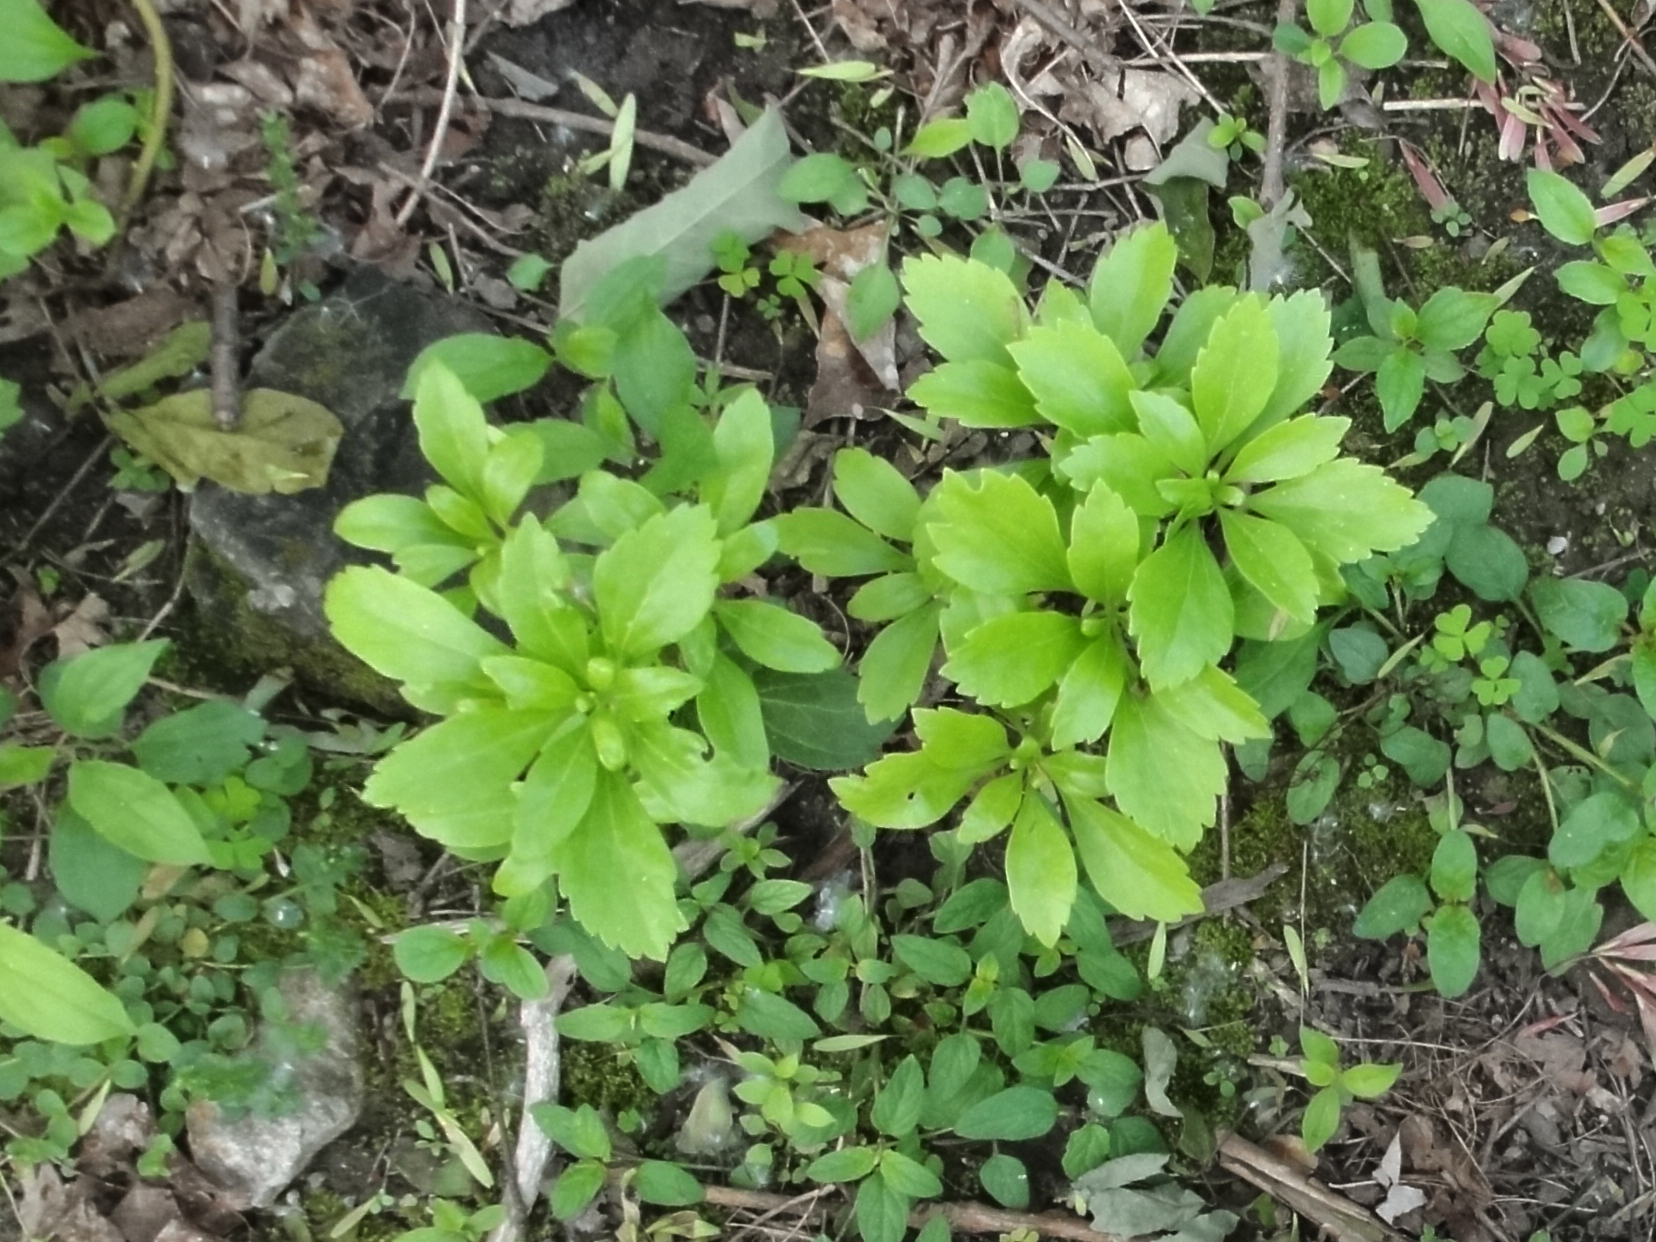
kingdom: Plantae
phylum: Tracheophyta
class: Magnoliopsida
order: Buxales
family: Buxaceae
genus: Pachysandra
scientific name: Pachysandra terminalis
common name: Japanese pachysandra
